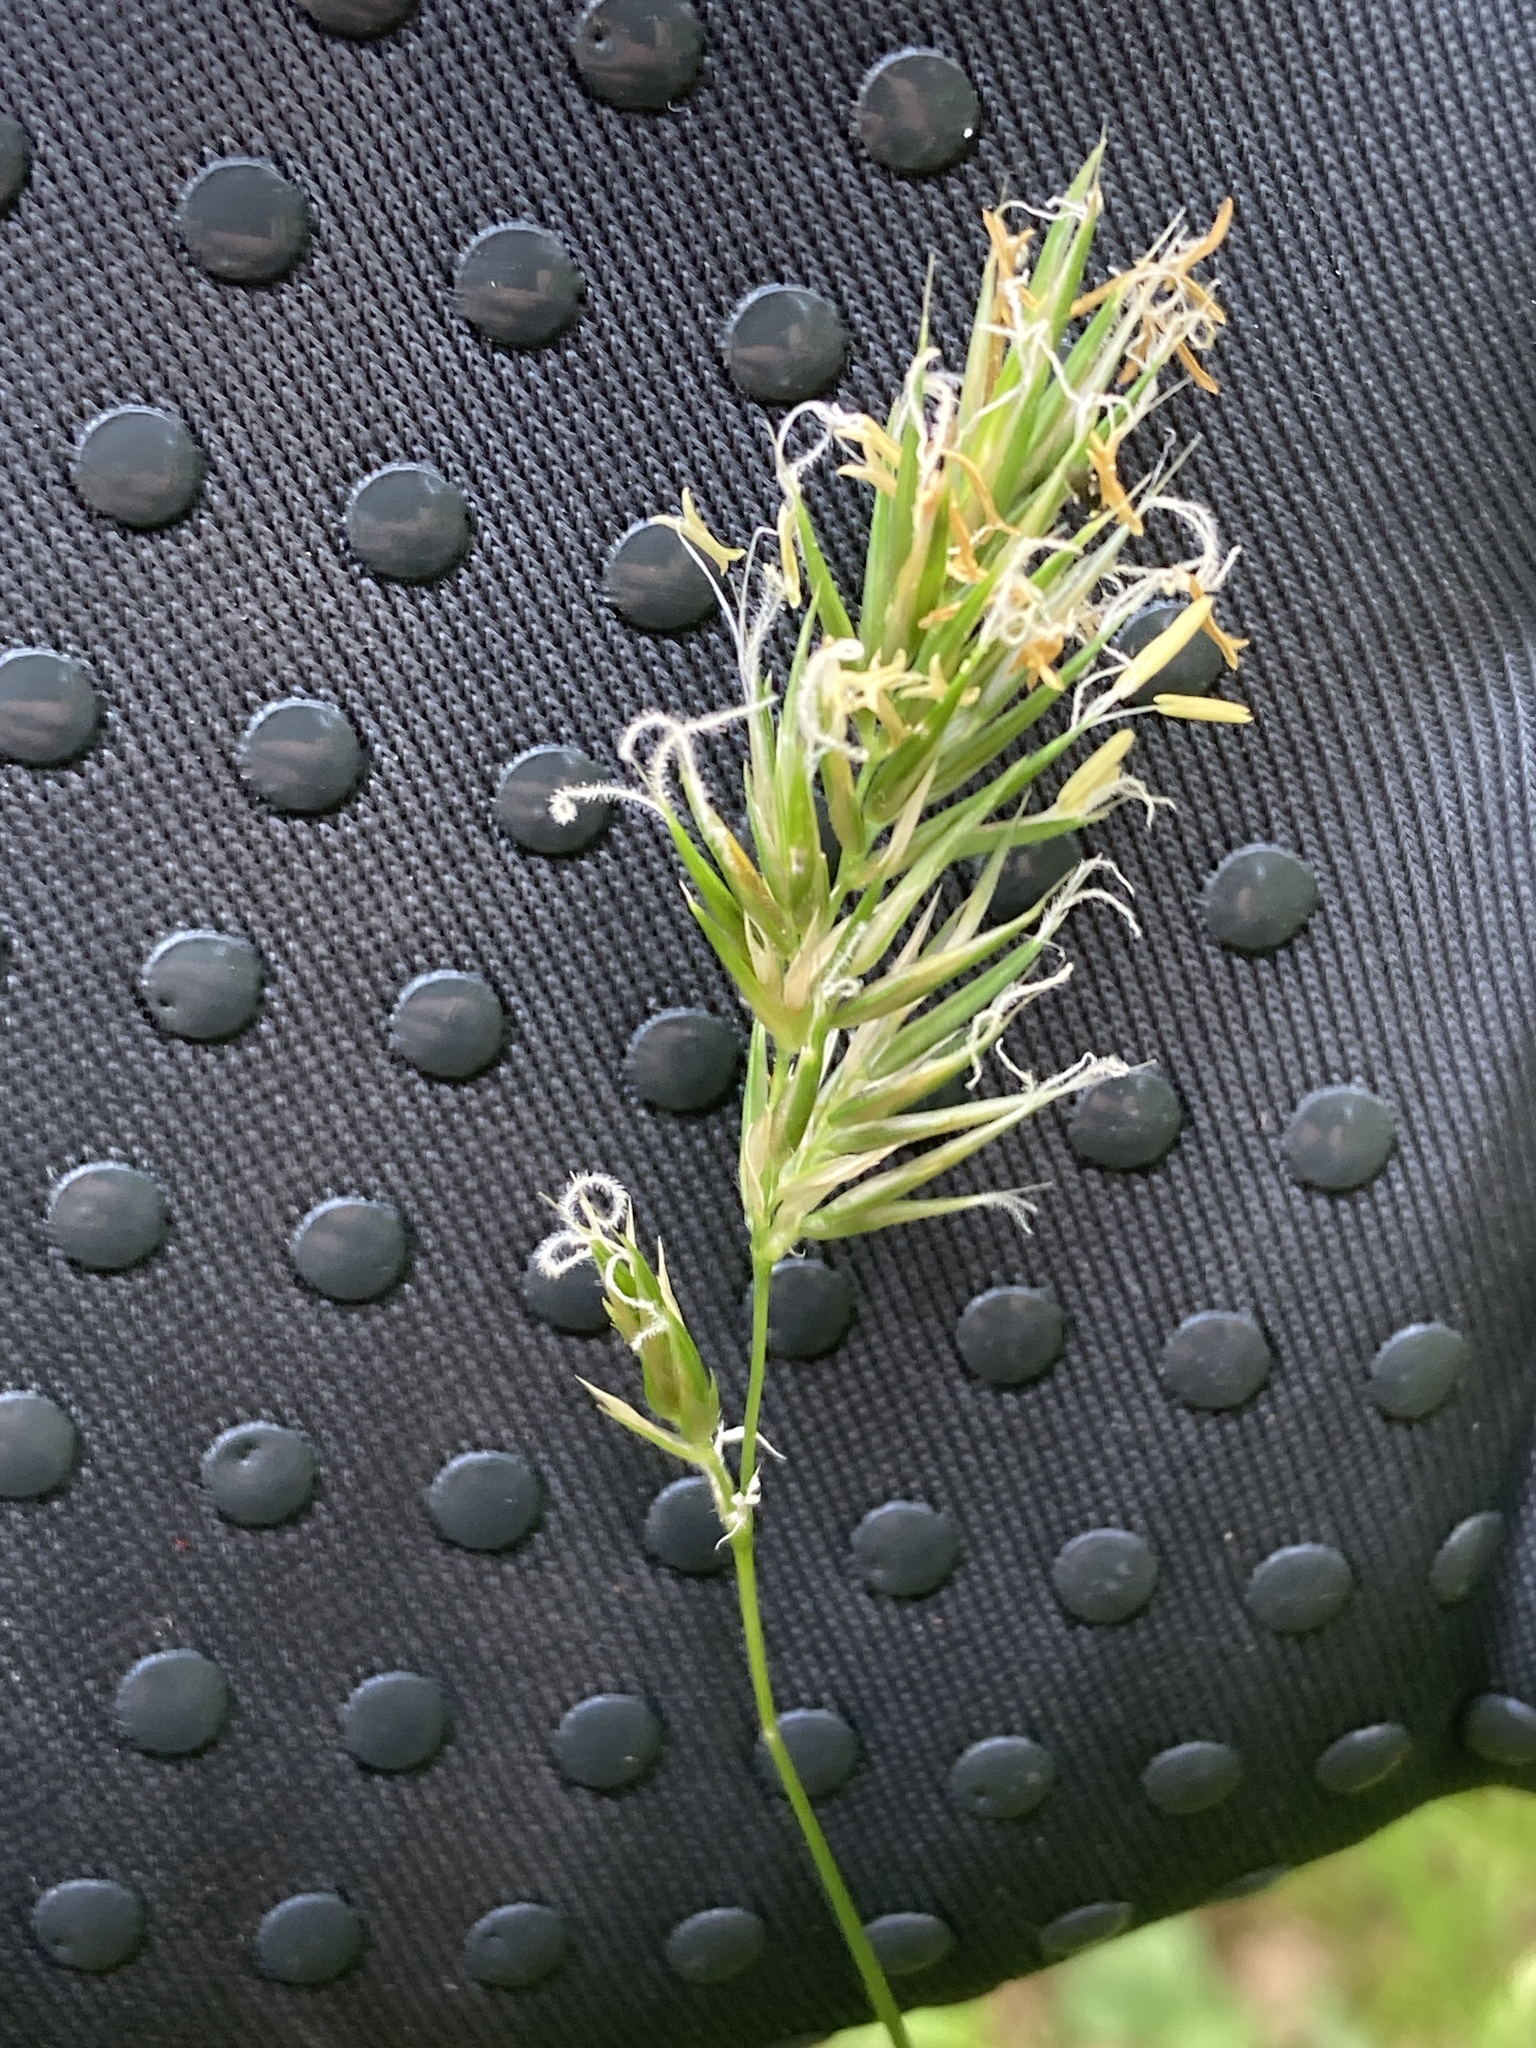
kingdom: Plantae
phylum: Tracheophyta
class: Liliopsida
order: Poales
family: Poaceae
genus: Anthoxanthum
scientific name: Anthoxanthum odoratum
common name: Sweet vernalgrass
